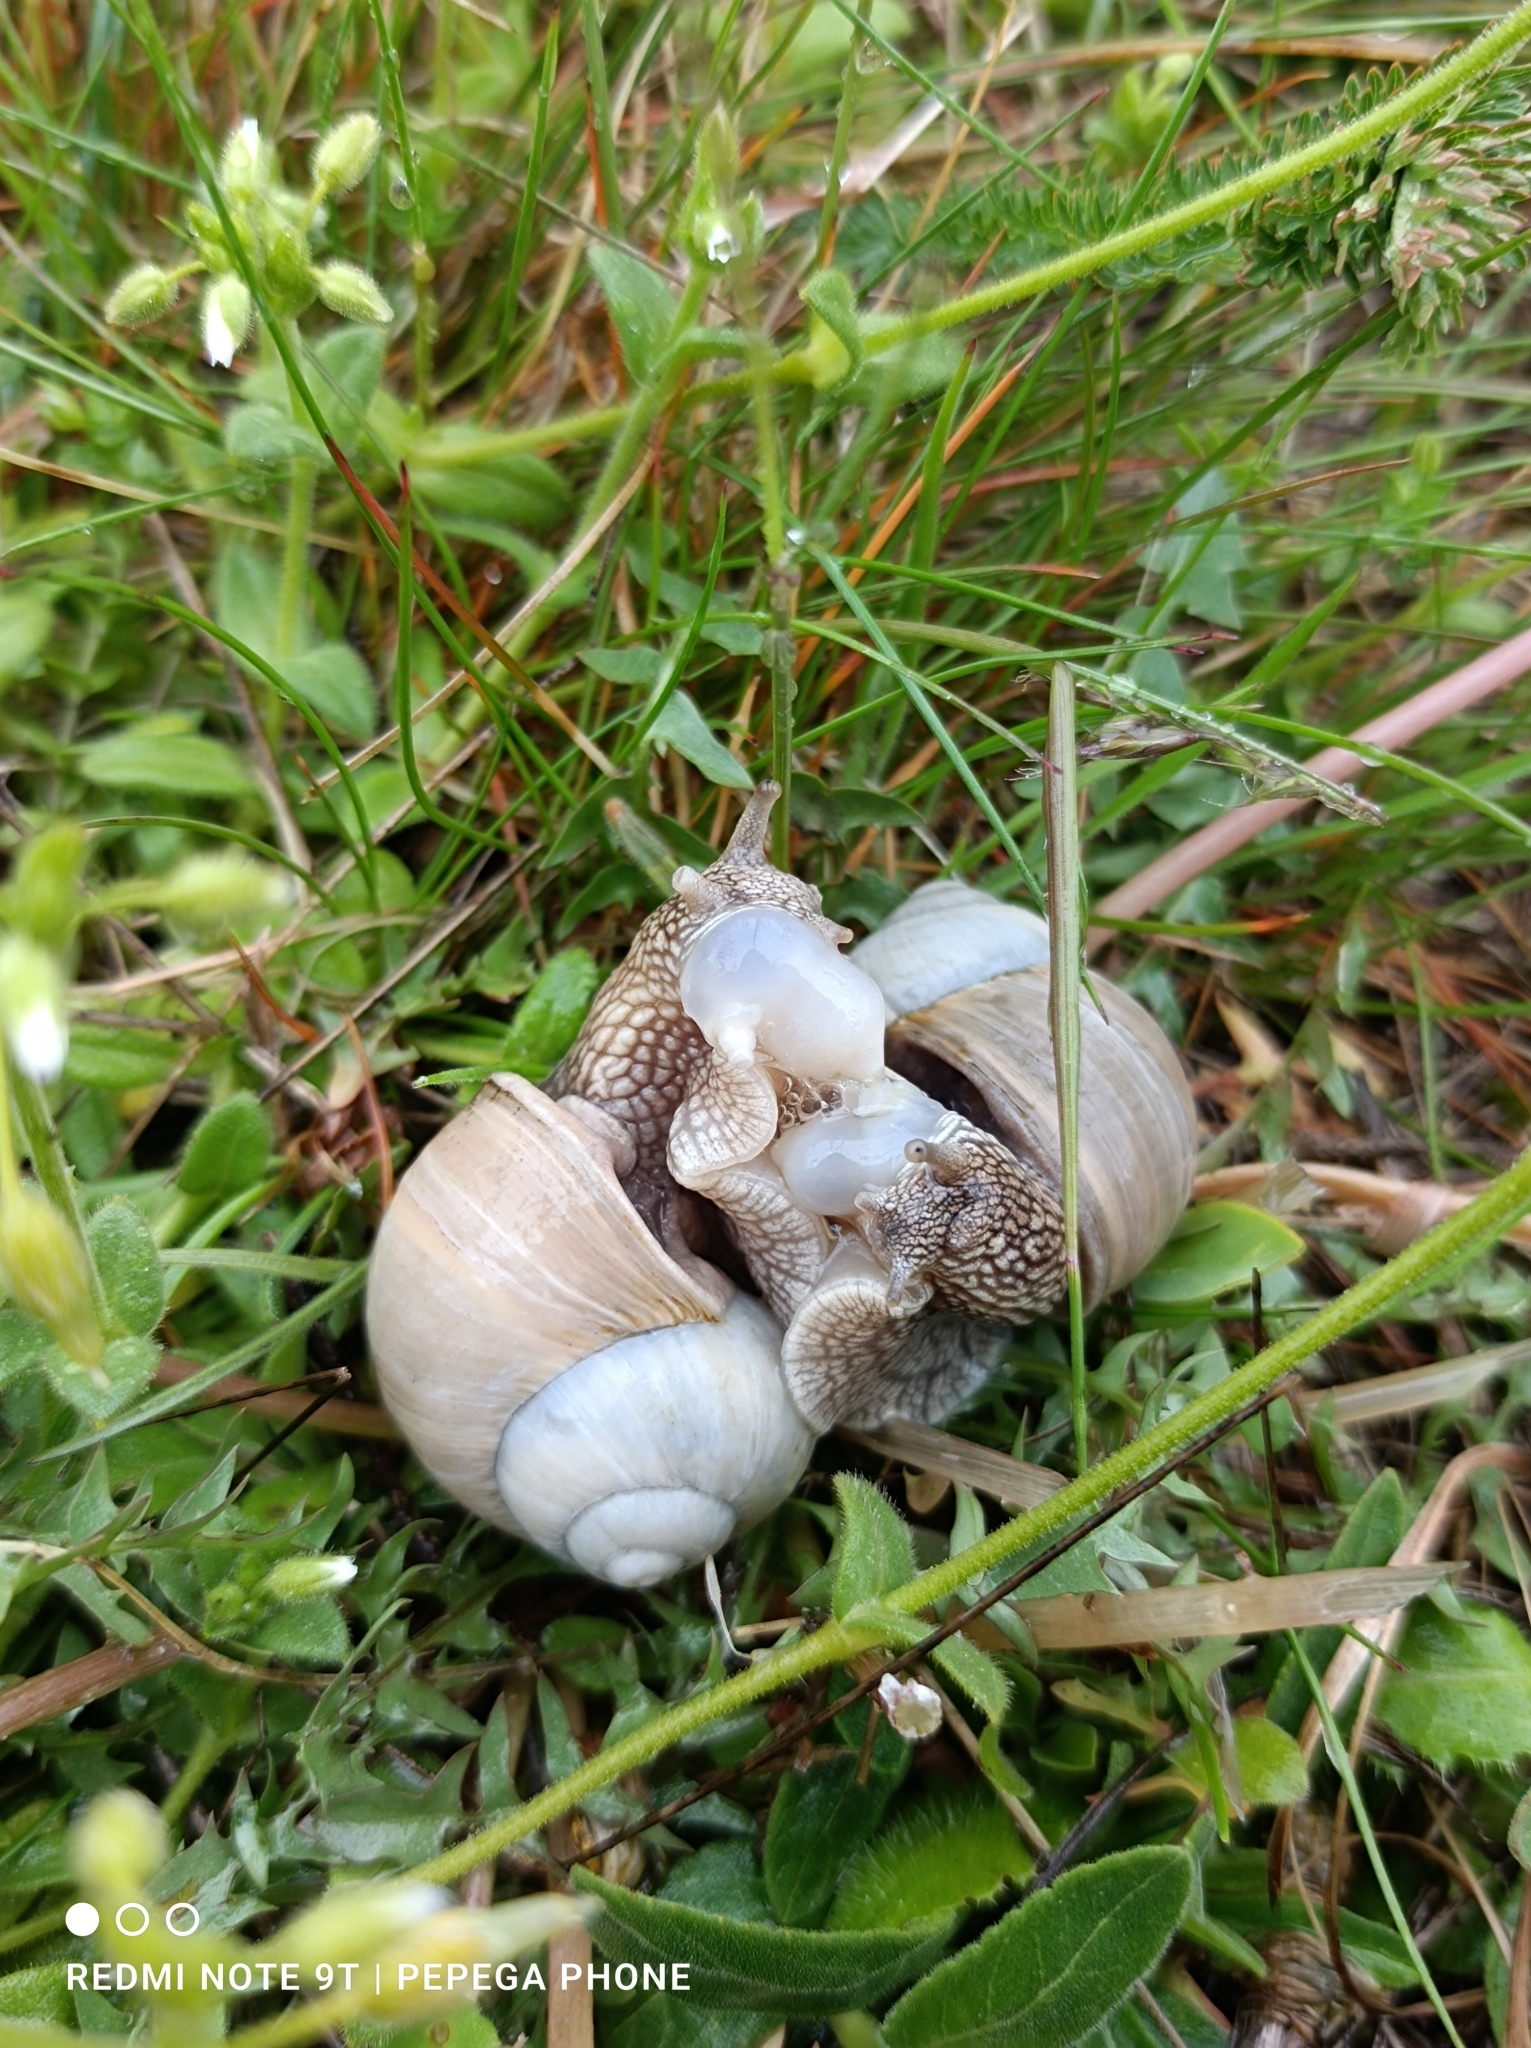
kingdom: Animalia
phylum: Mollusca
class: Gastropoda
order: Stylommatophora
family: Helicidae
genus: Helix
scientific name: Helix lutescens
